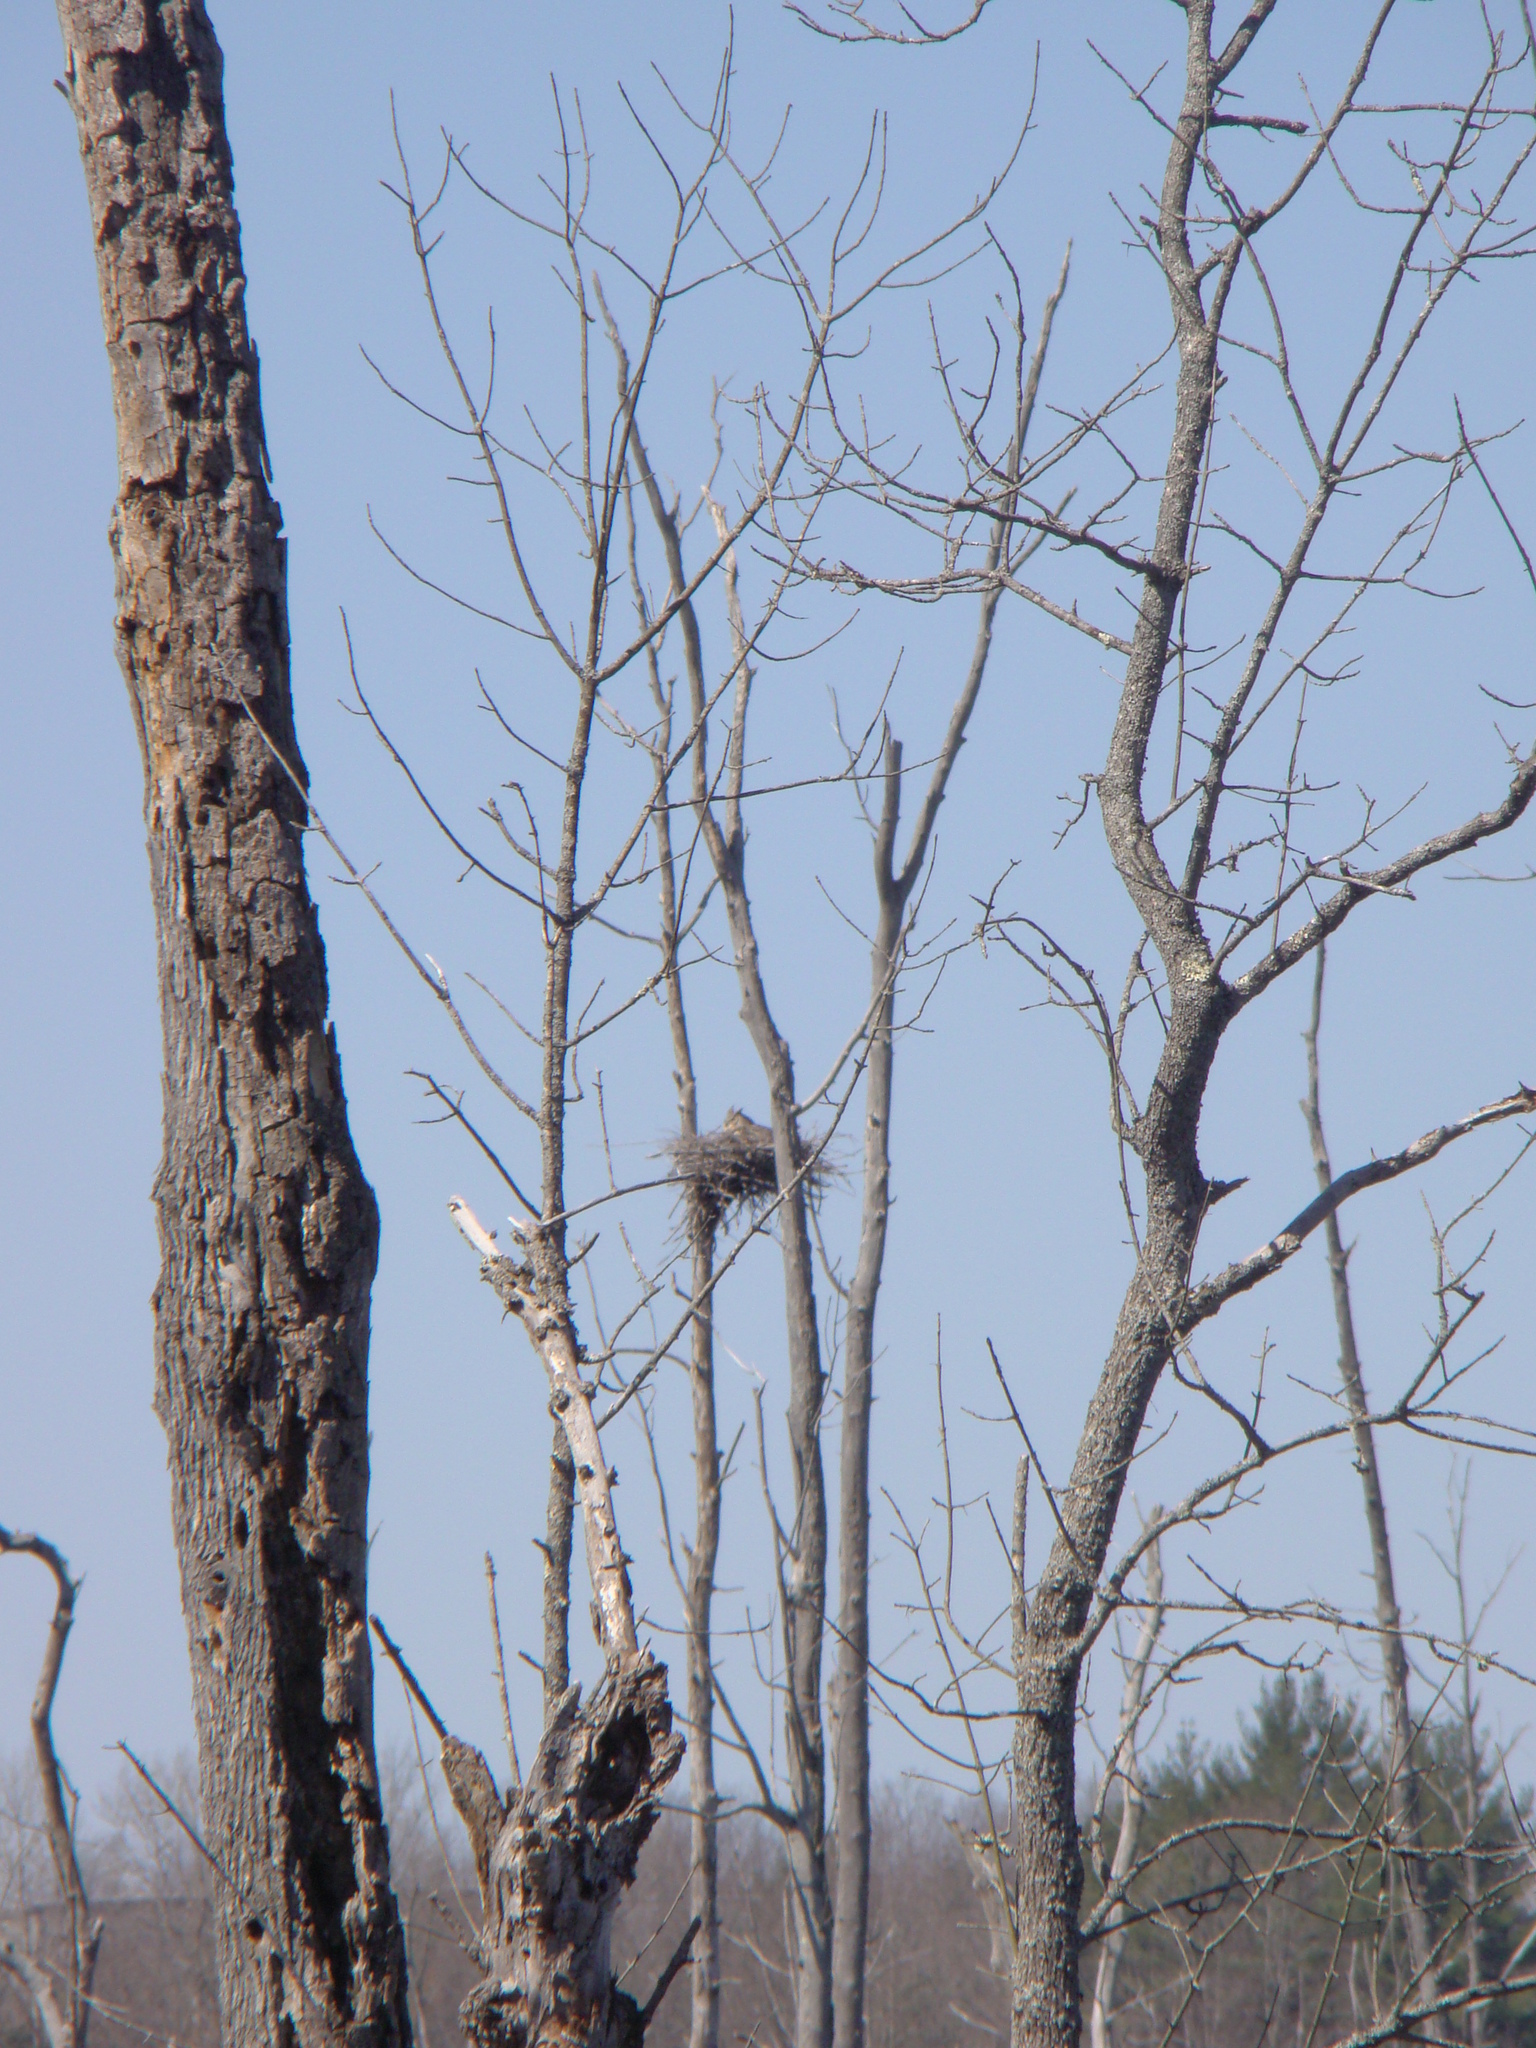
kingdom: Animalia
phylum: Chordata
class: Aves
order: Strigiformes
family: Strigidae
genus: Bubo
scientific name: Bubo virginianus
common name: Great horned owl
